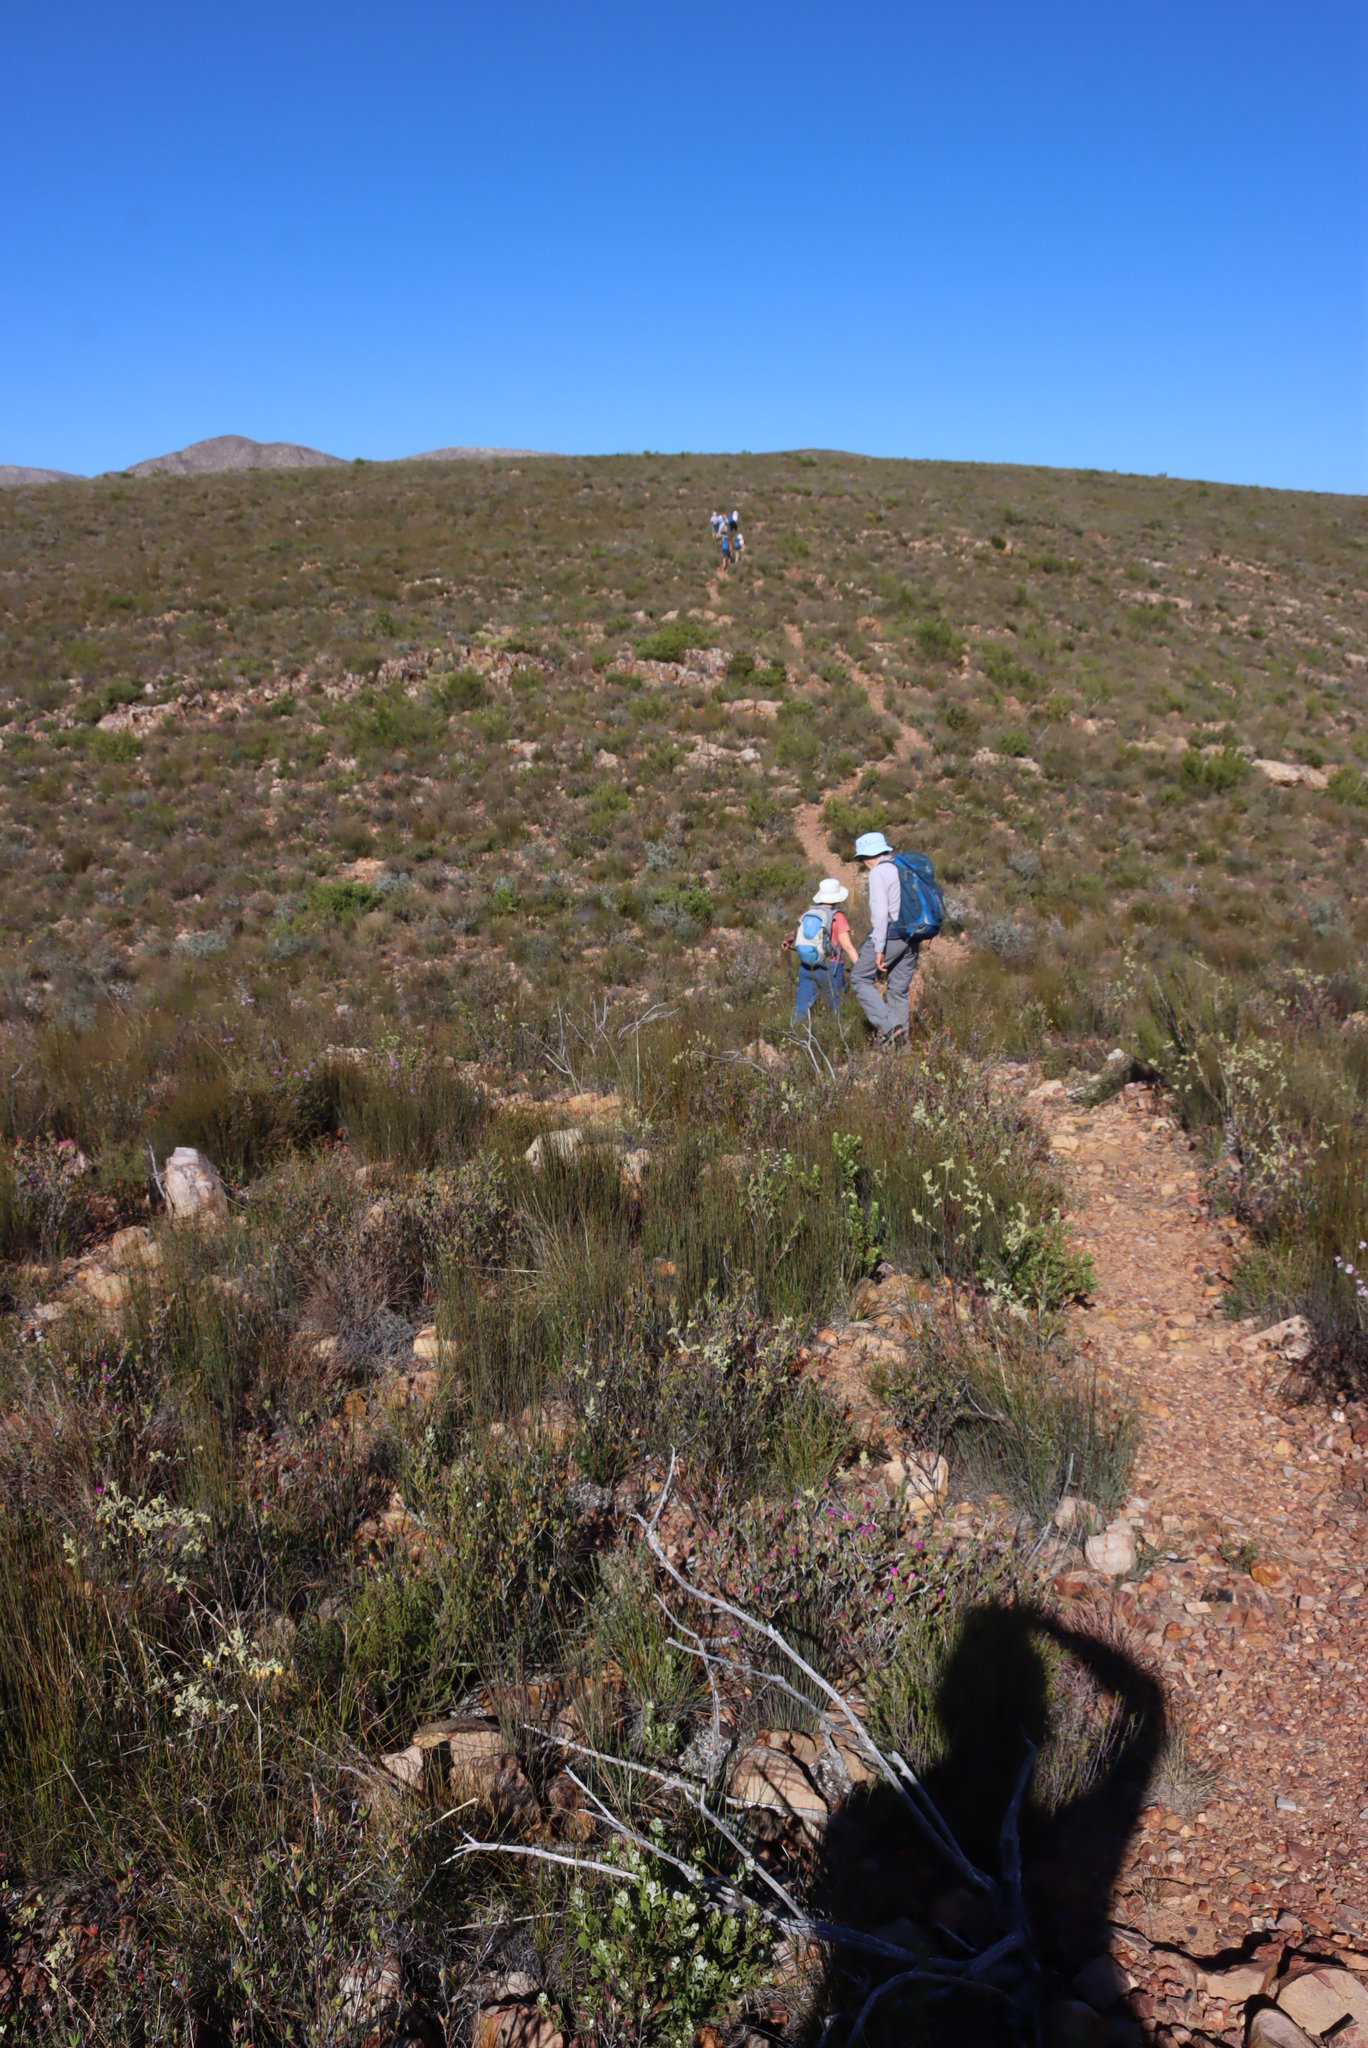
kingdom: Plantae
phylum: Tracheophyta
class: Liliopsida
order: Poales
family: Restionaceae
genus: Hypodiscus
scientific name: Hypodiscus striatus
